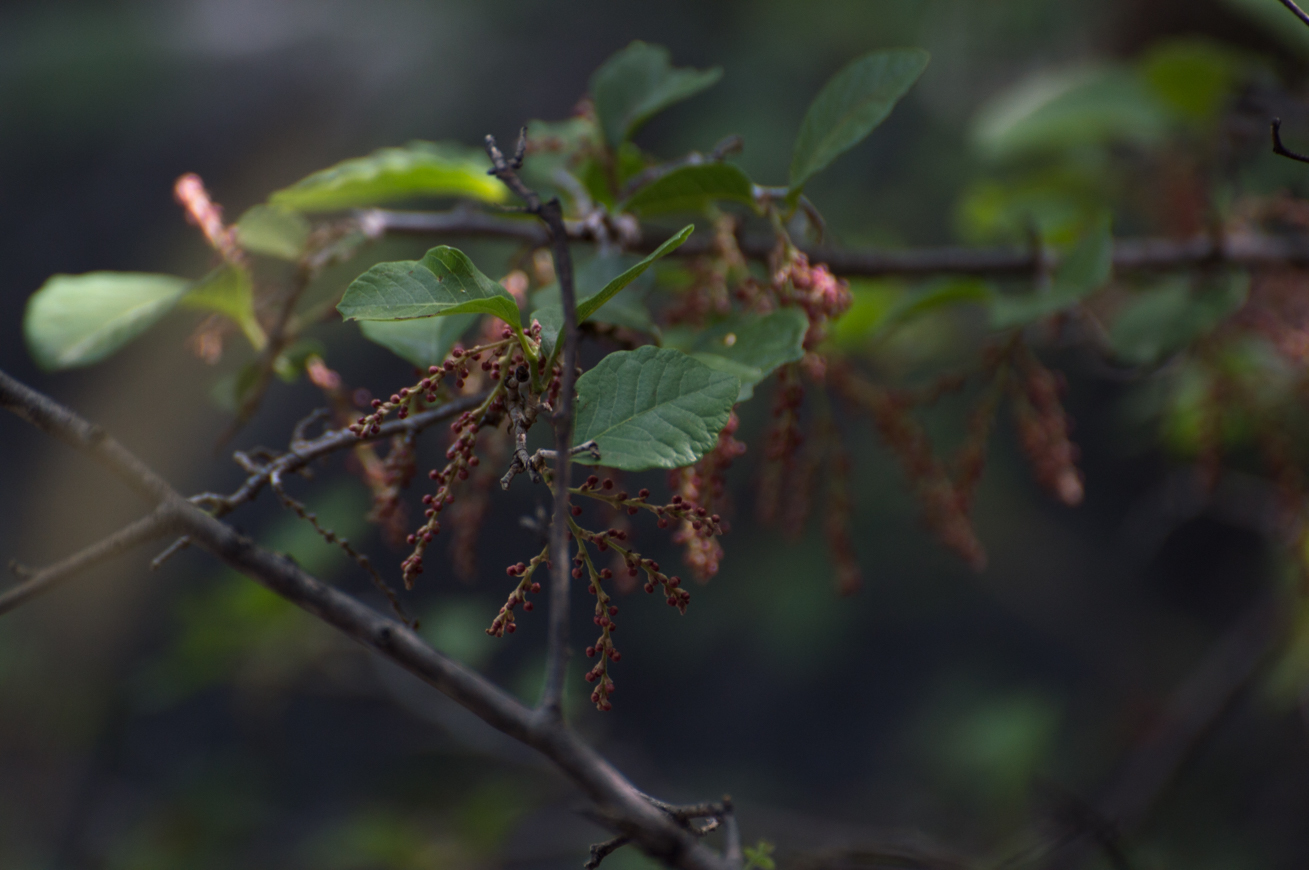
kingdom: Plantae
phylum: Tracheophyta
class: Magnoliopsida
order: Caryophyllales
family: Polygonaceae
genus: Ruprechtia
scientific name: Ruprechtia apetala
